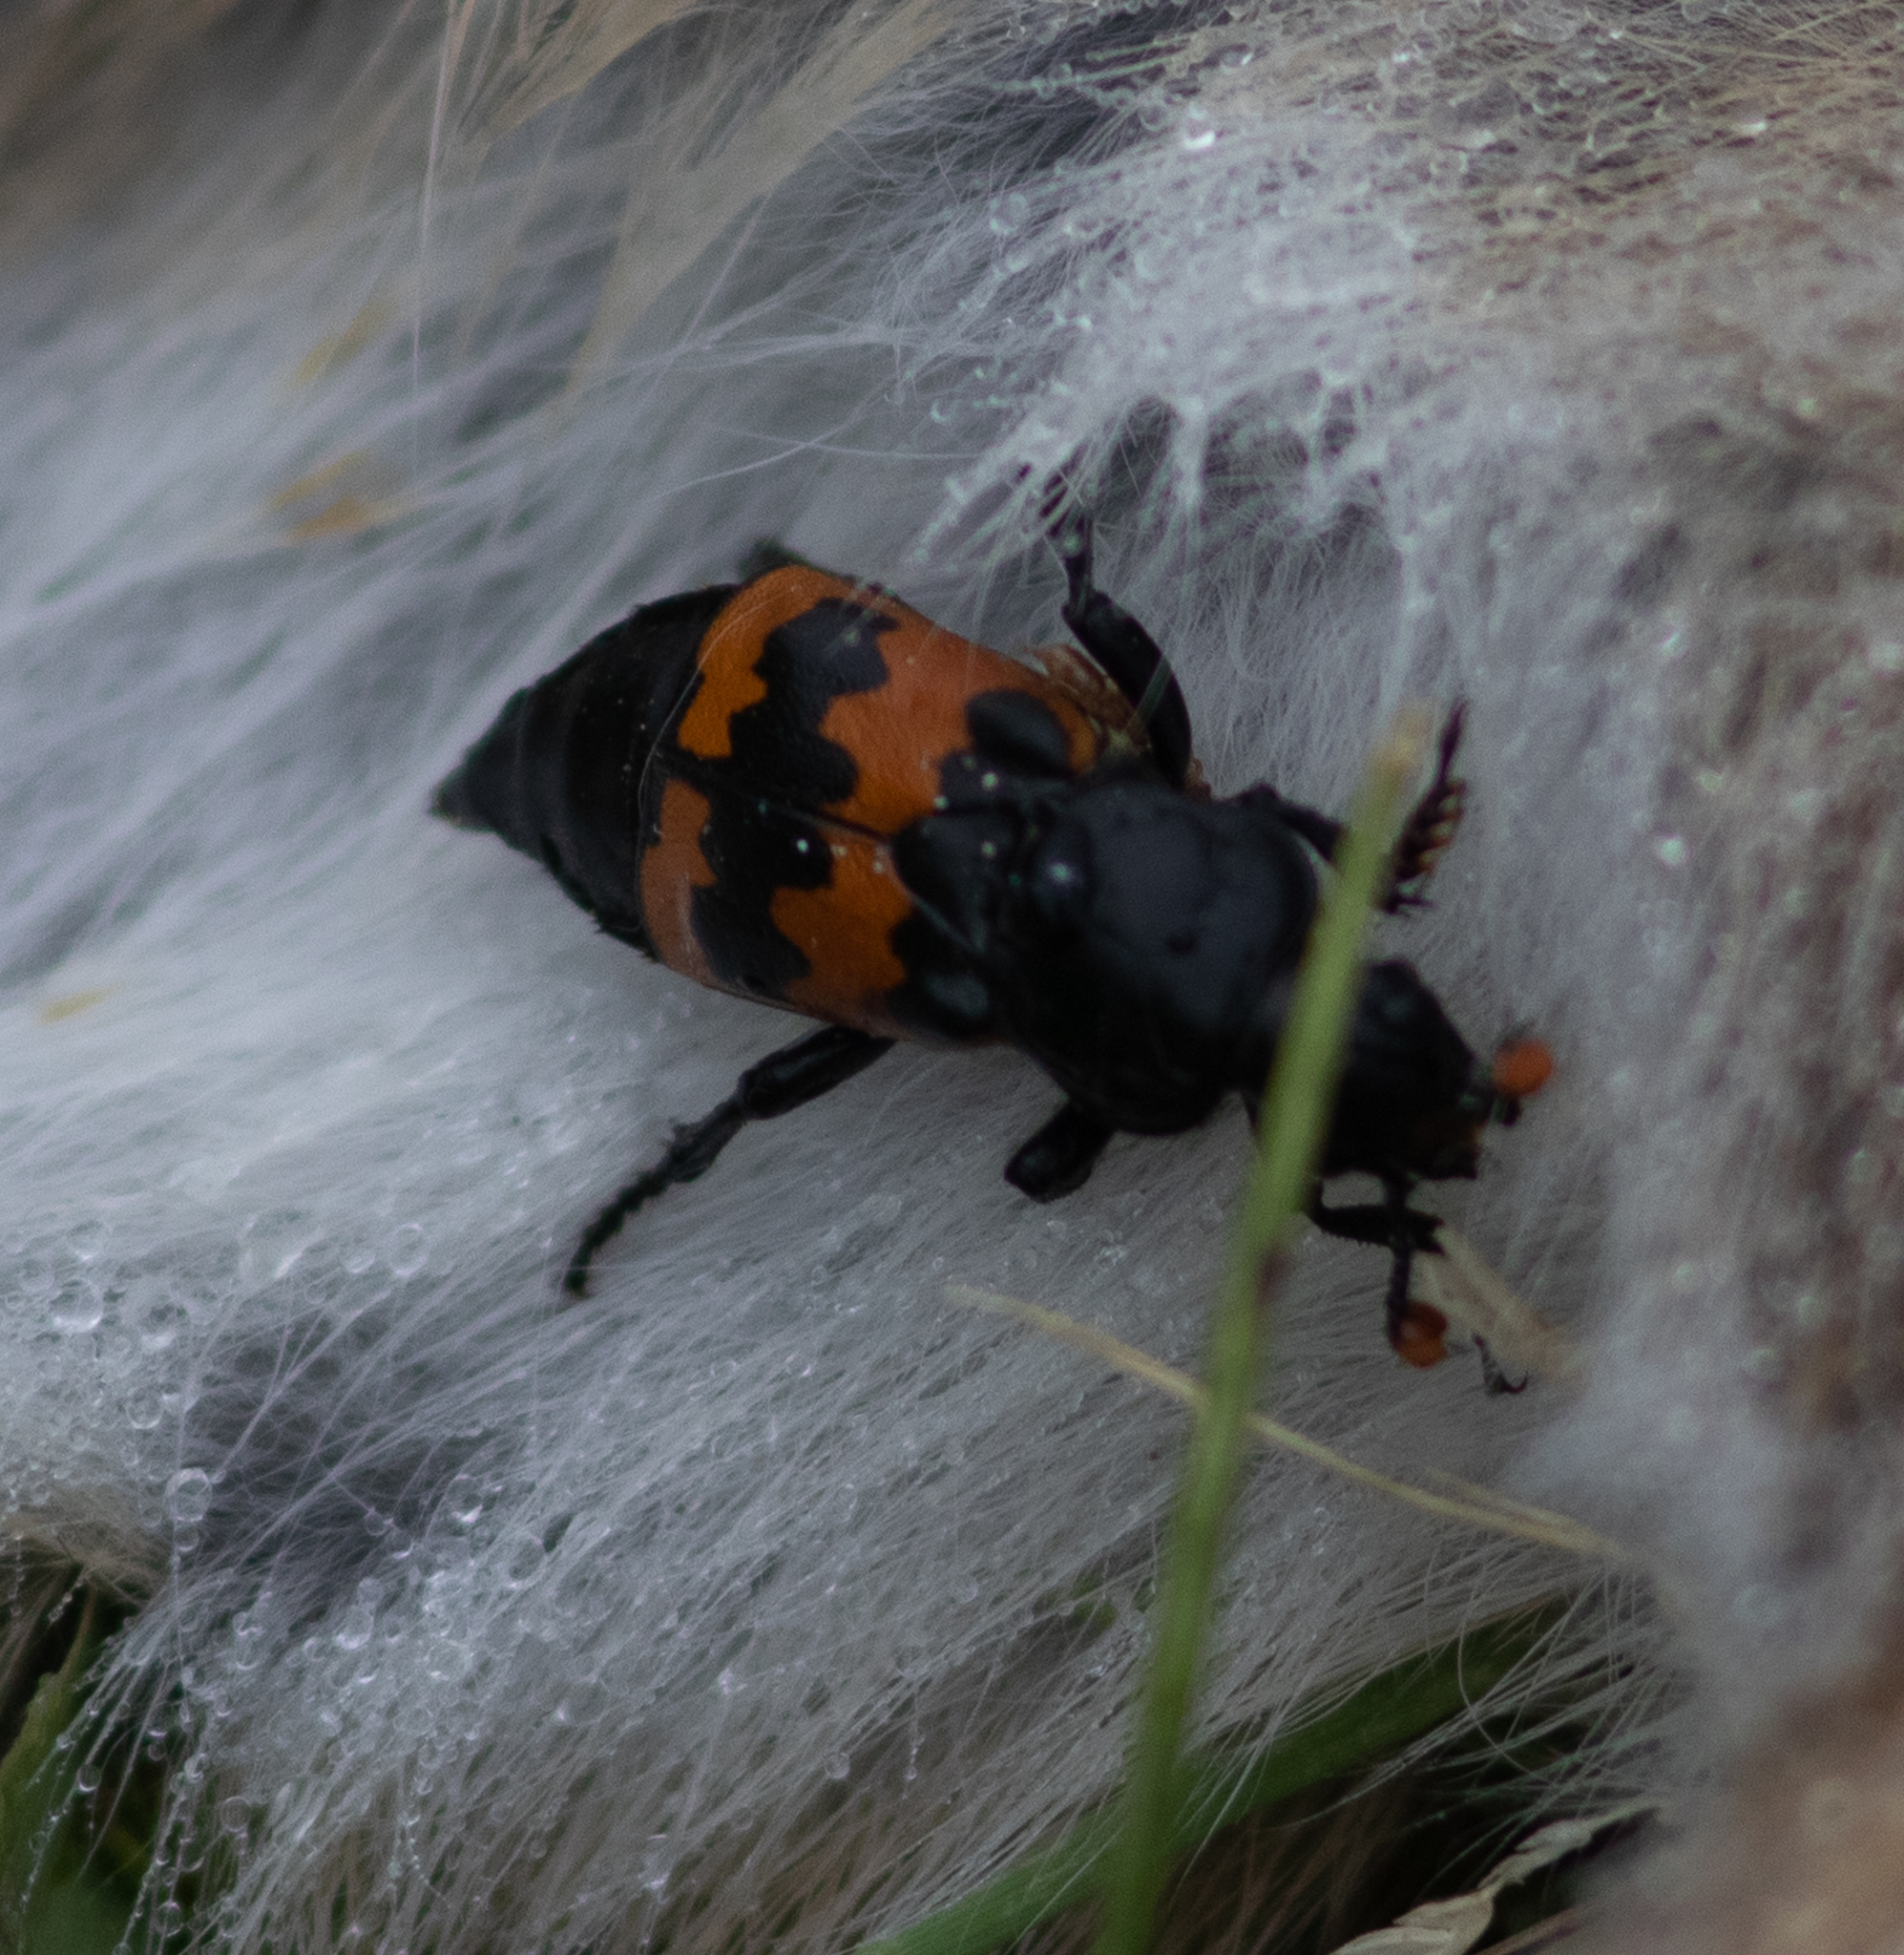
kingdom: Animalia
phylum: Arthropoda
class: Insecta
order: Coleoptera
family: Staphylinidae
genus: Nicrophorus
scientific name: Nicrophorus marginatus
